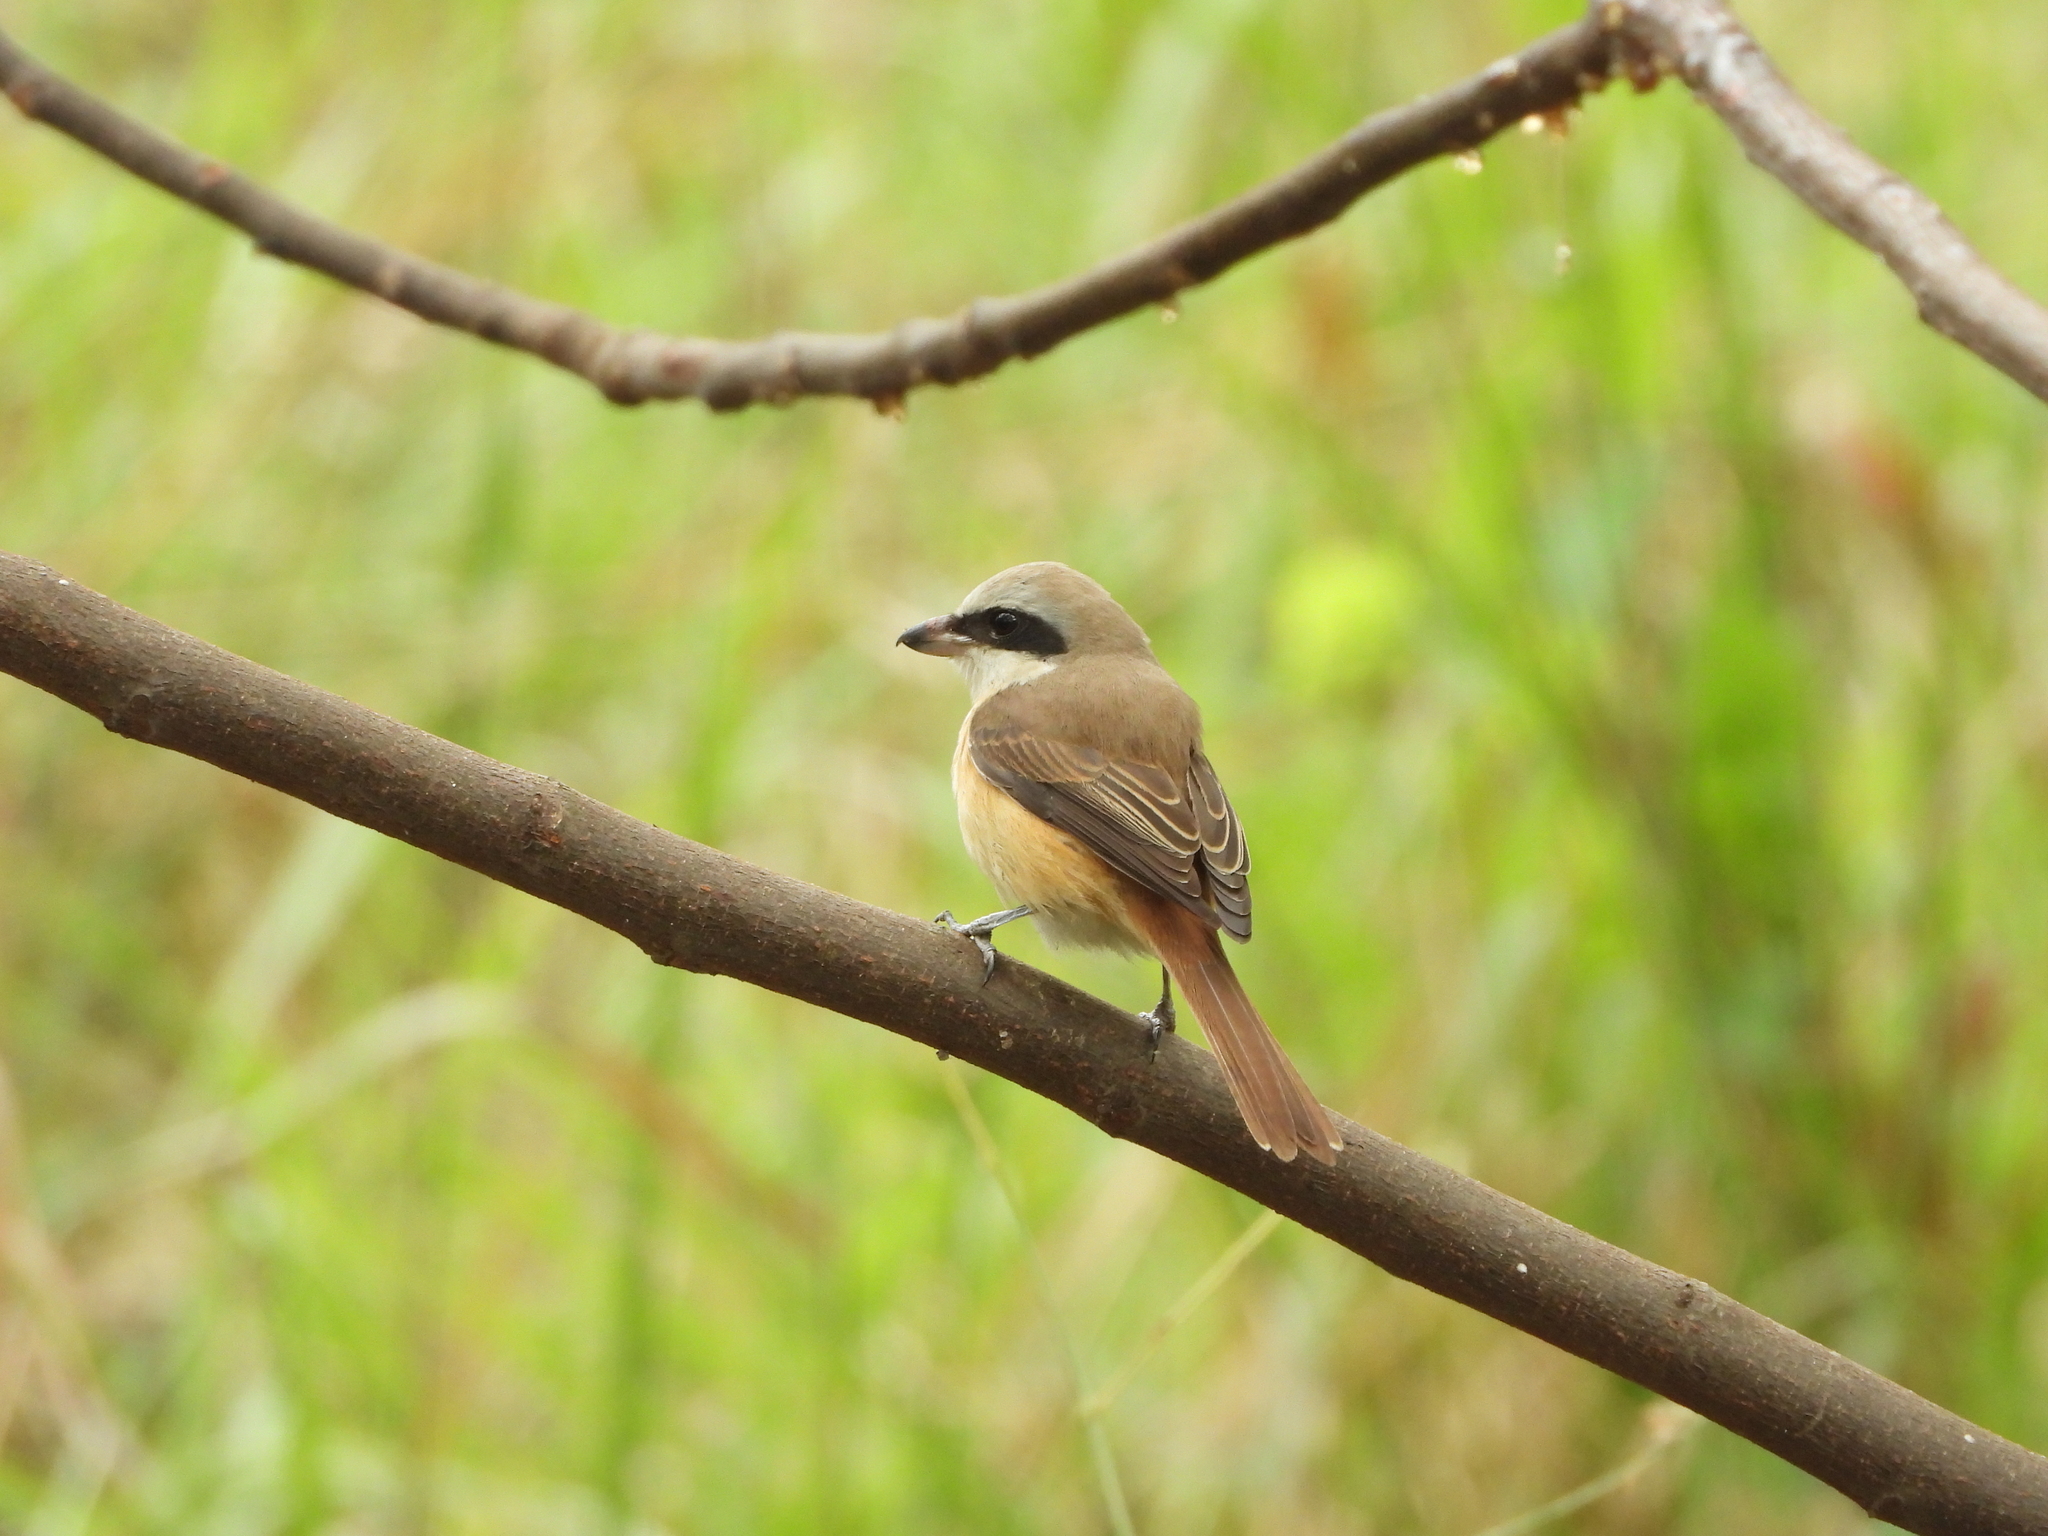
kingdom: Animalia
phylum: Chordata
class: Aves
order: Passeriformes
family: Laniidae
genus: Lanius
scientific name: Lanius cristatus
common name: Brown shrike
